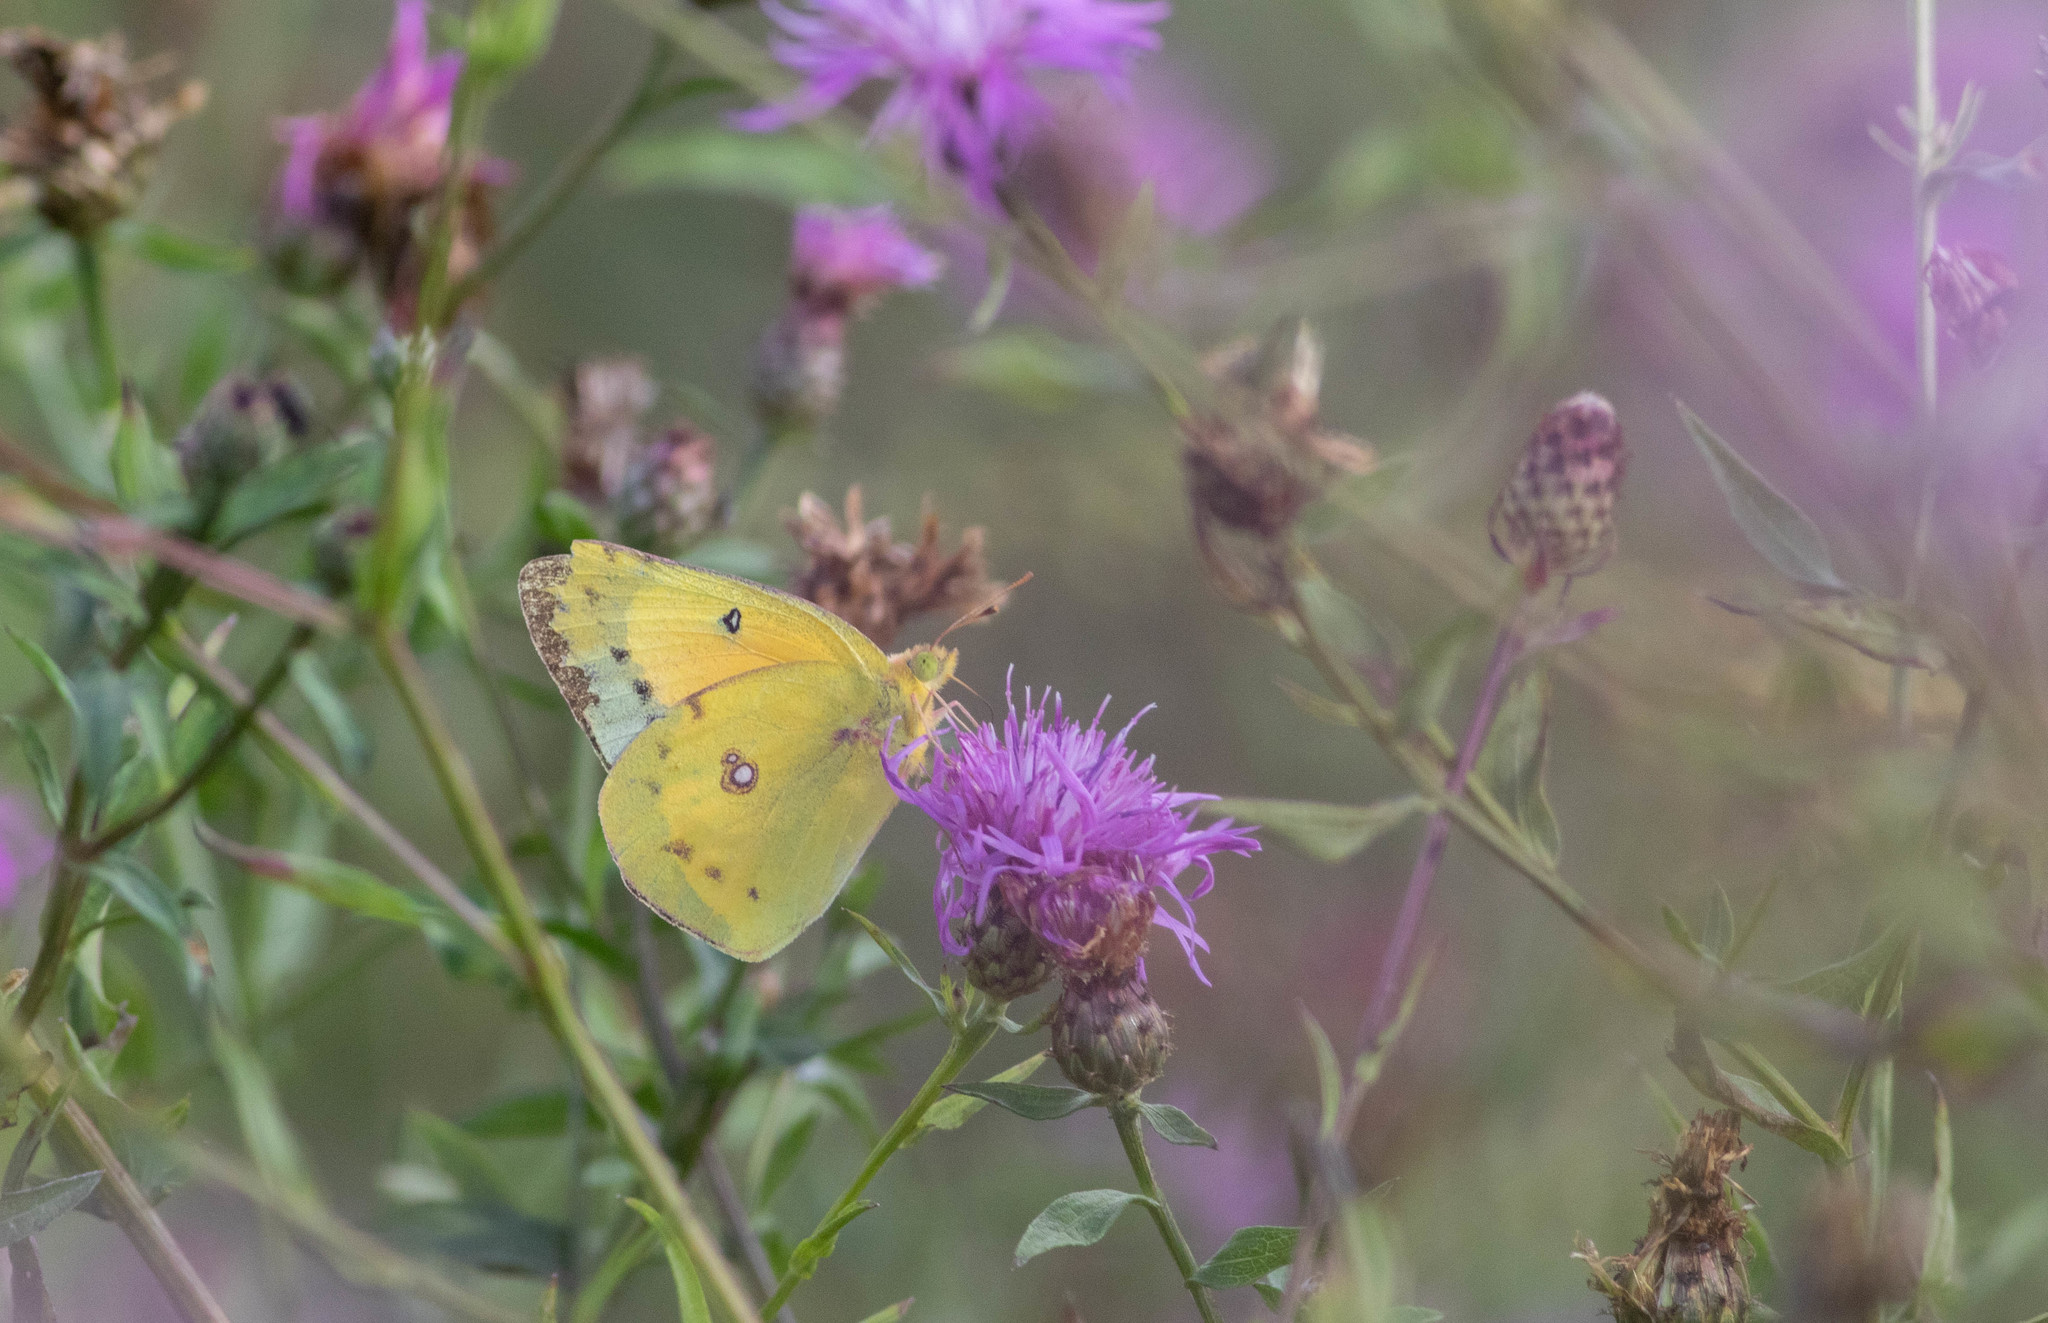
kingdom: Animalia
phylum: Arthropoda
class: Insecta
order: Lepidoptera
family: Pieridae
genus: Colias
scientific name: Colias eurytheme
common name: Alfalfa butterfly
